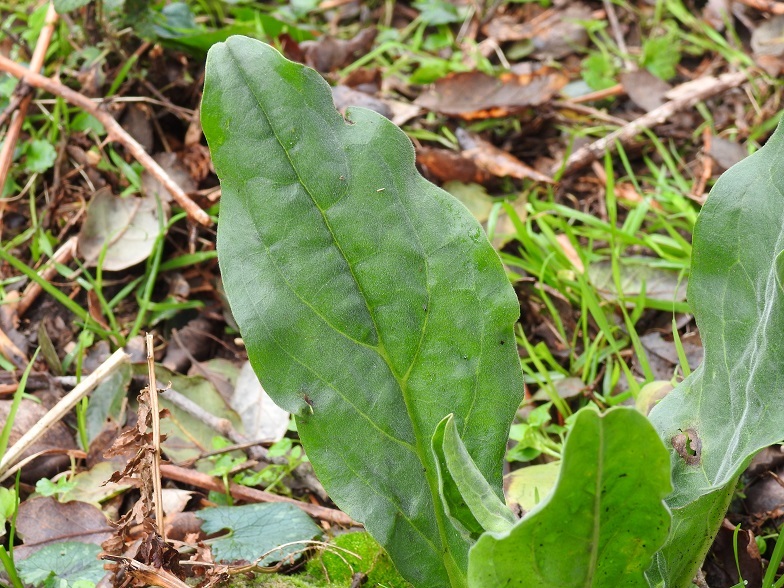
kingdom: Plantae
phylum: Tracheophyta
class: Magnoliopsida
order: Lamiales
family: Plantaginaceae
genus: Plantago
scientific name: Plantago major
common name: Common plantain
